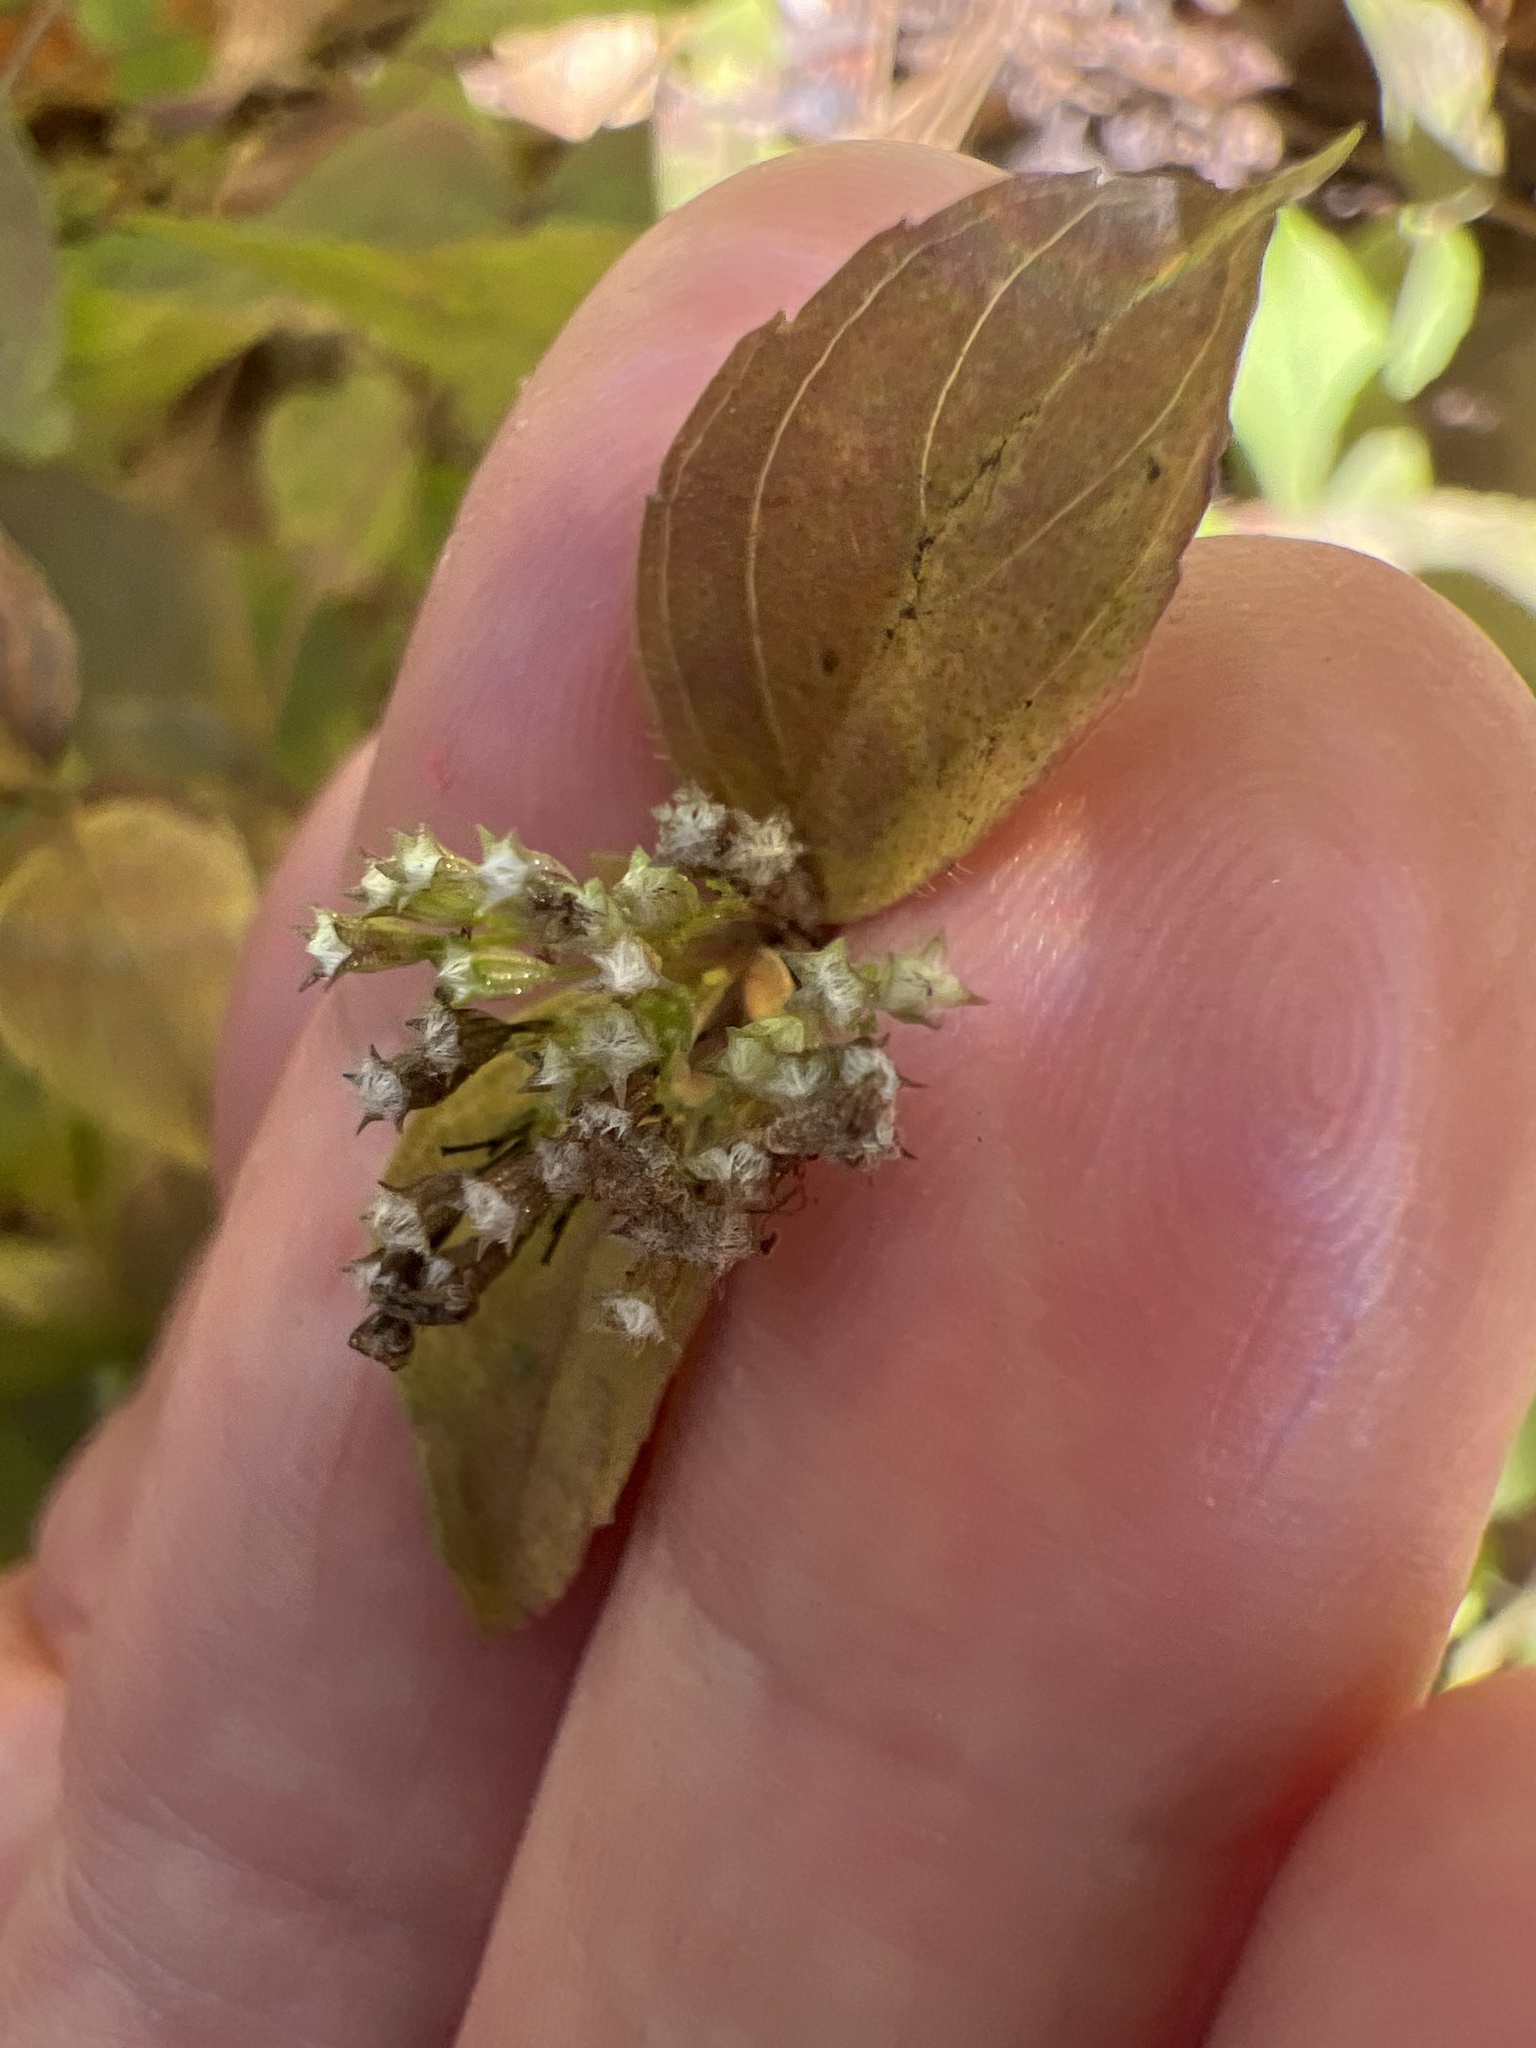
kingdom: Plantae
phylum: Tracheophyta
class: Magnoliopsida
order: Lamiales
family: Lamiaceae
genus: Cunila
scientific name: Cunila origanoides
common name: American dittany
